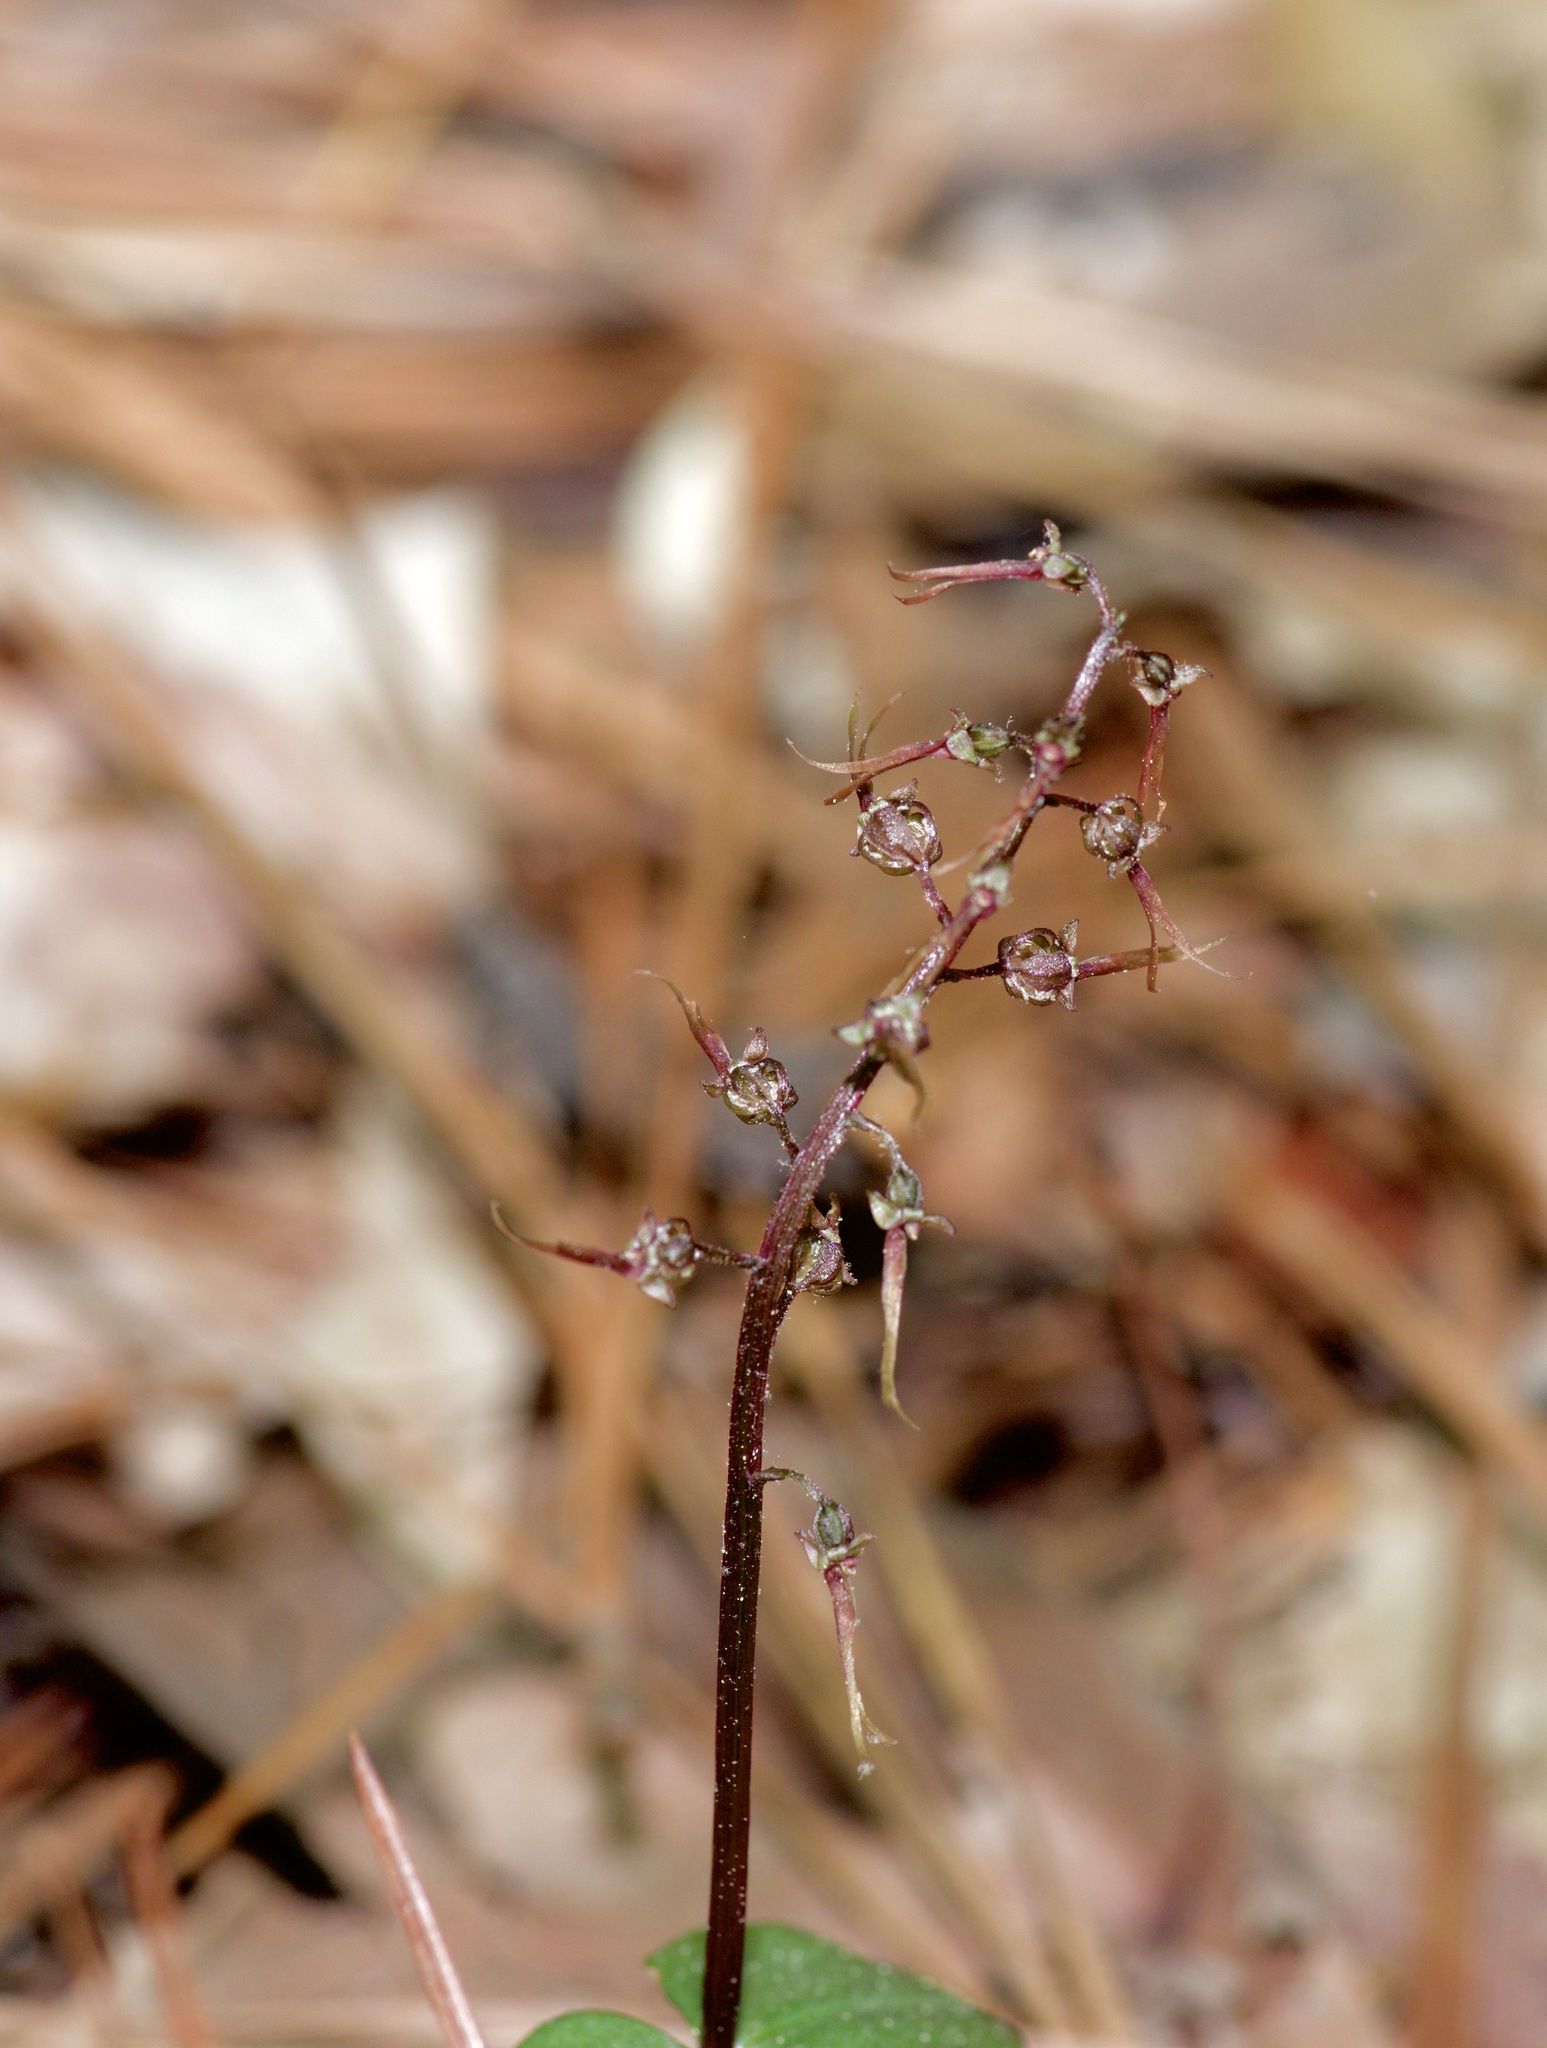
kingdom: Plantae
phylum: Tracheophyta
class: Liliopsida
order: Asparagales
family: Orchidaceae
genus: Neottia
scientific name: Neottia bifolia
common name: Southern twayblade
